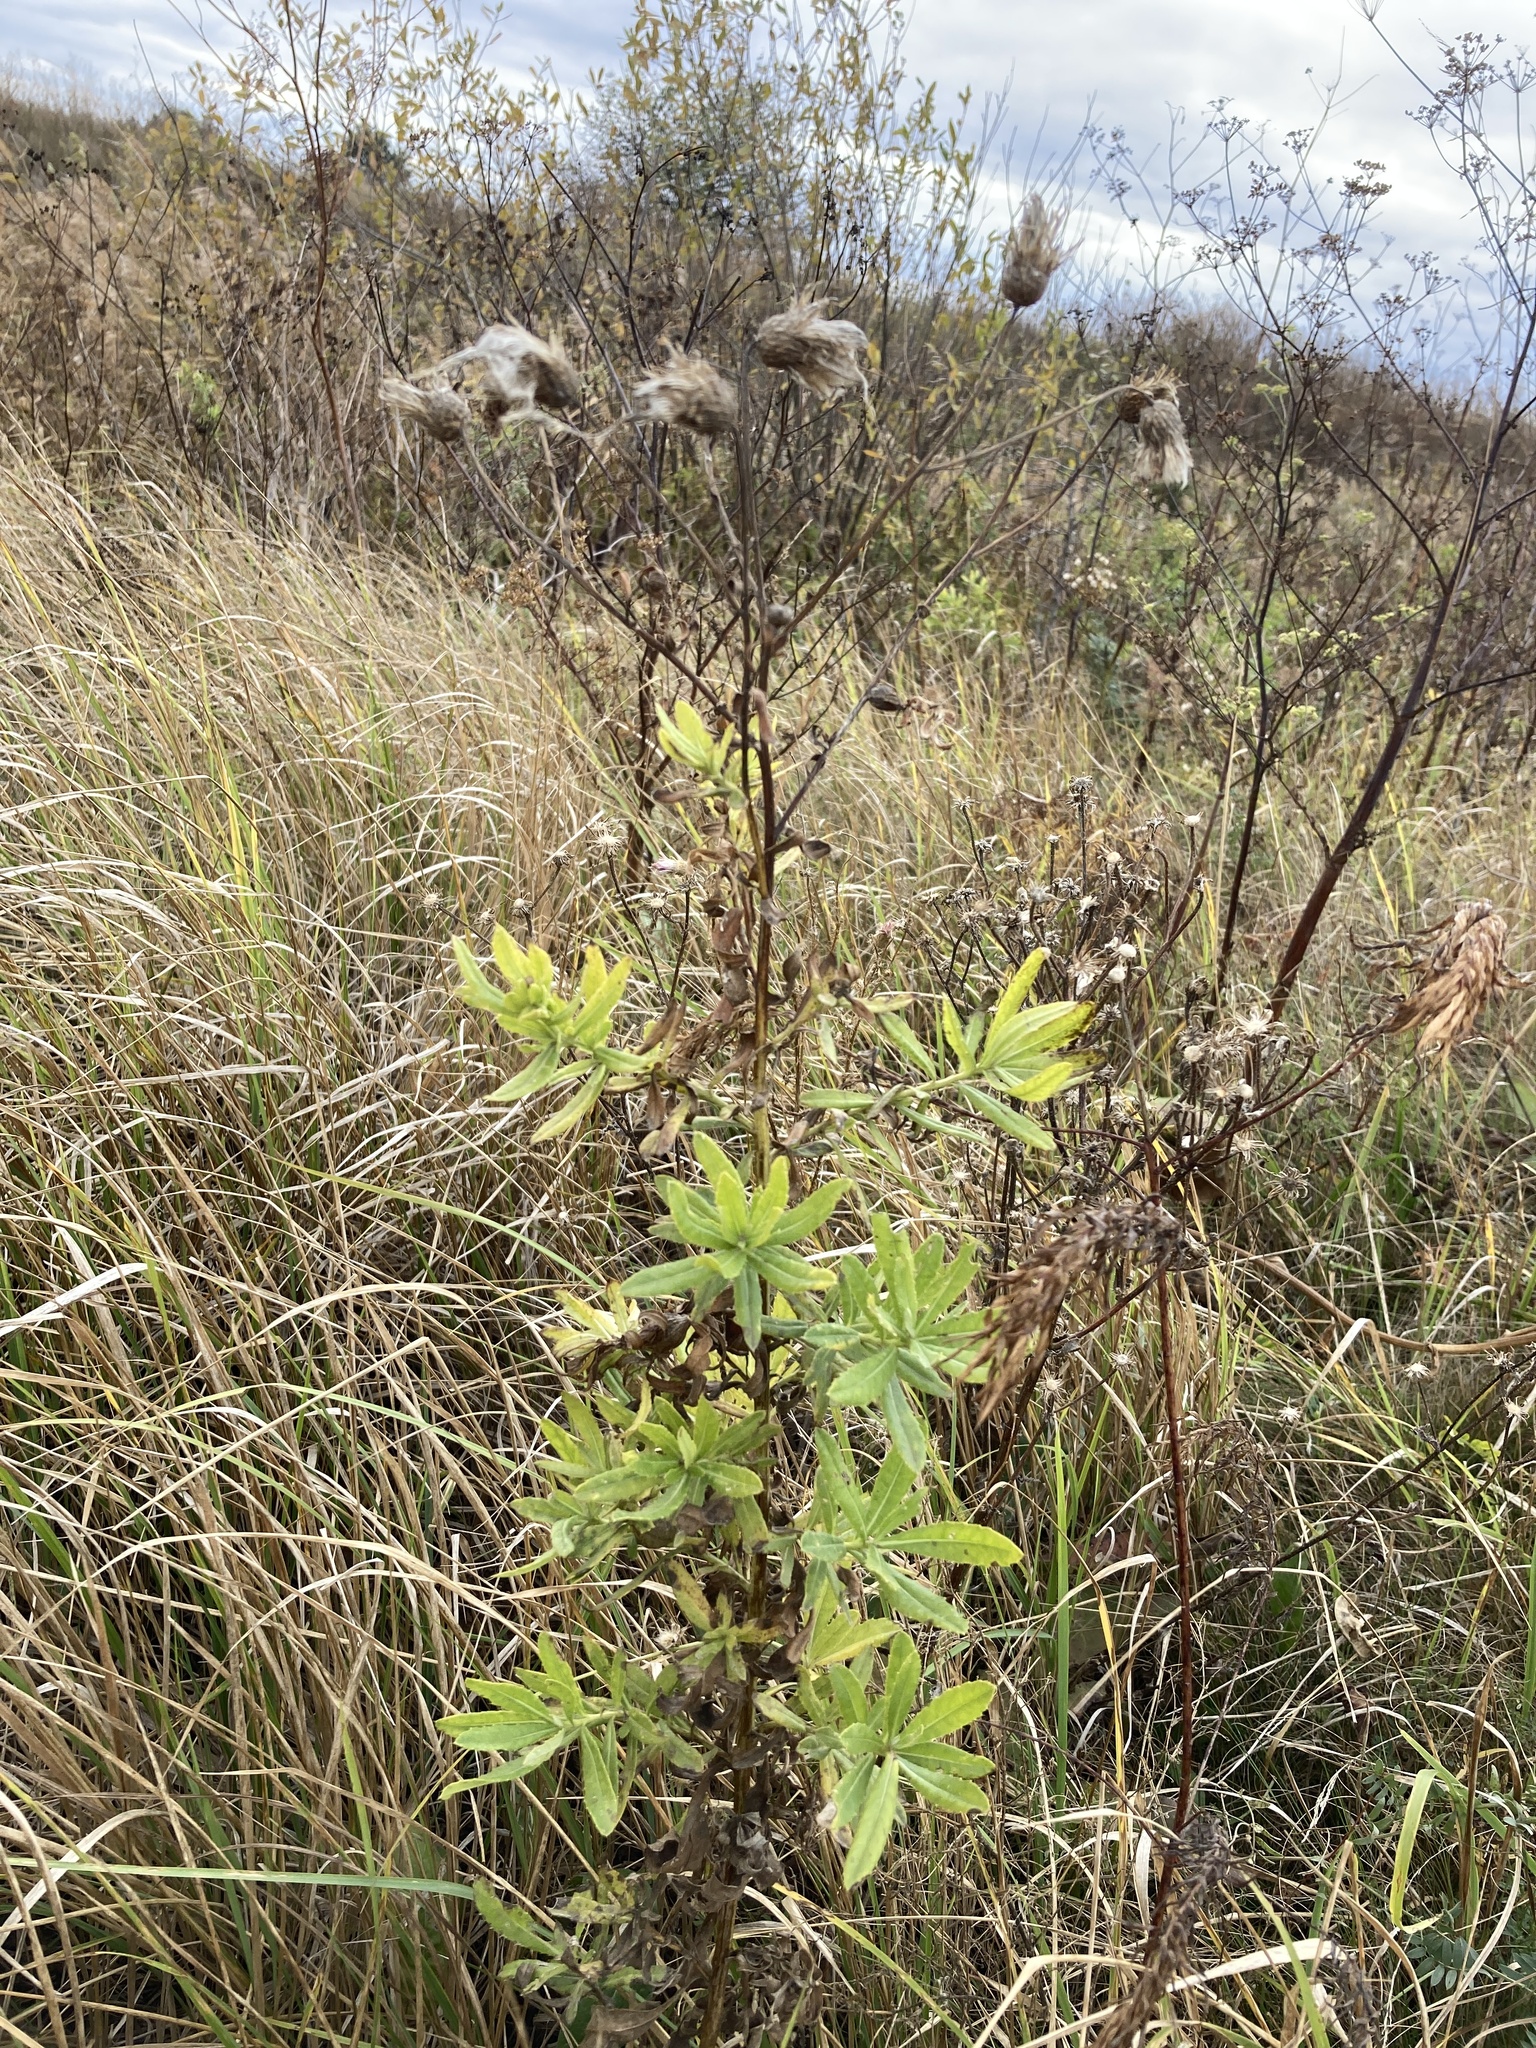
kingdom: Plantae
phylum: Tracheophyta
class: Magnoliopsida
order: Asterales
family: Asteraceae
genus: Cirsium
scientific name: Cirsium arvense
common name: Creeping thistle
